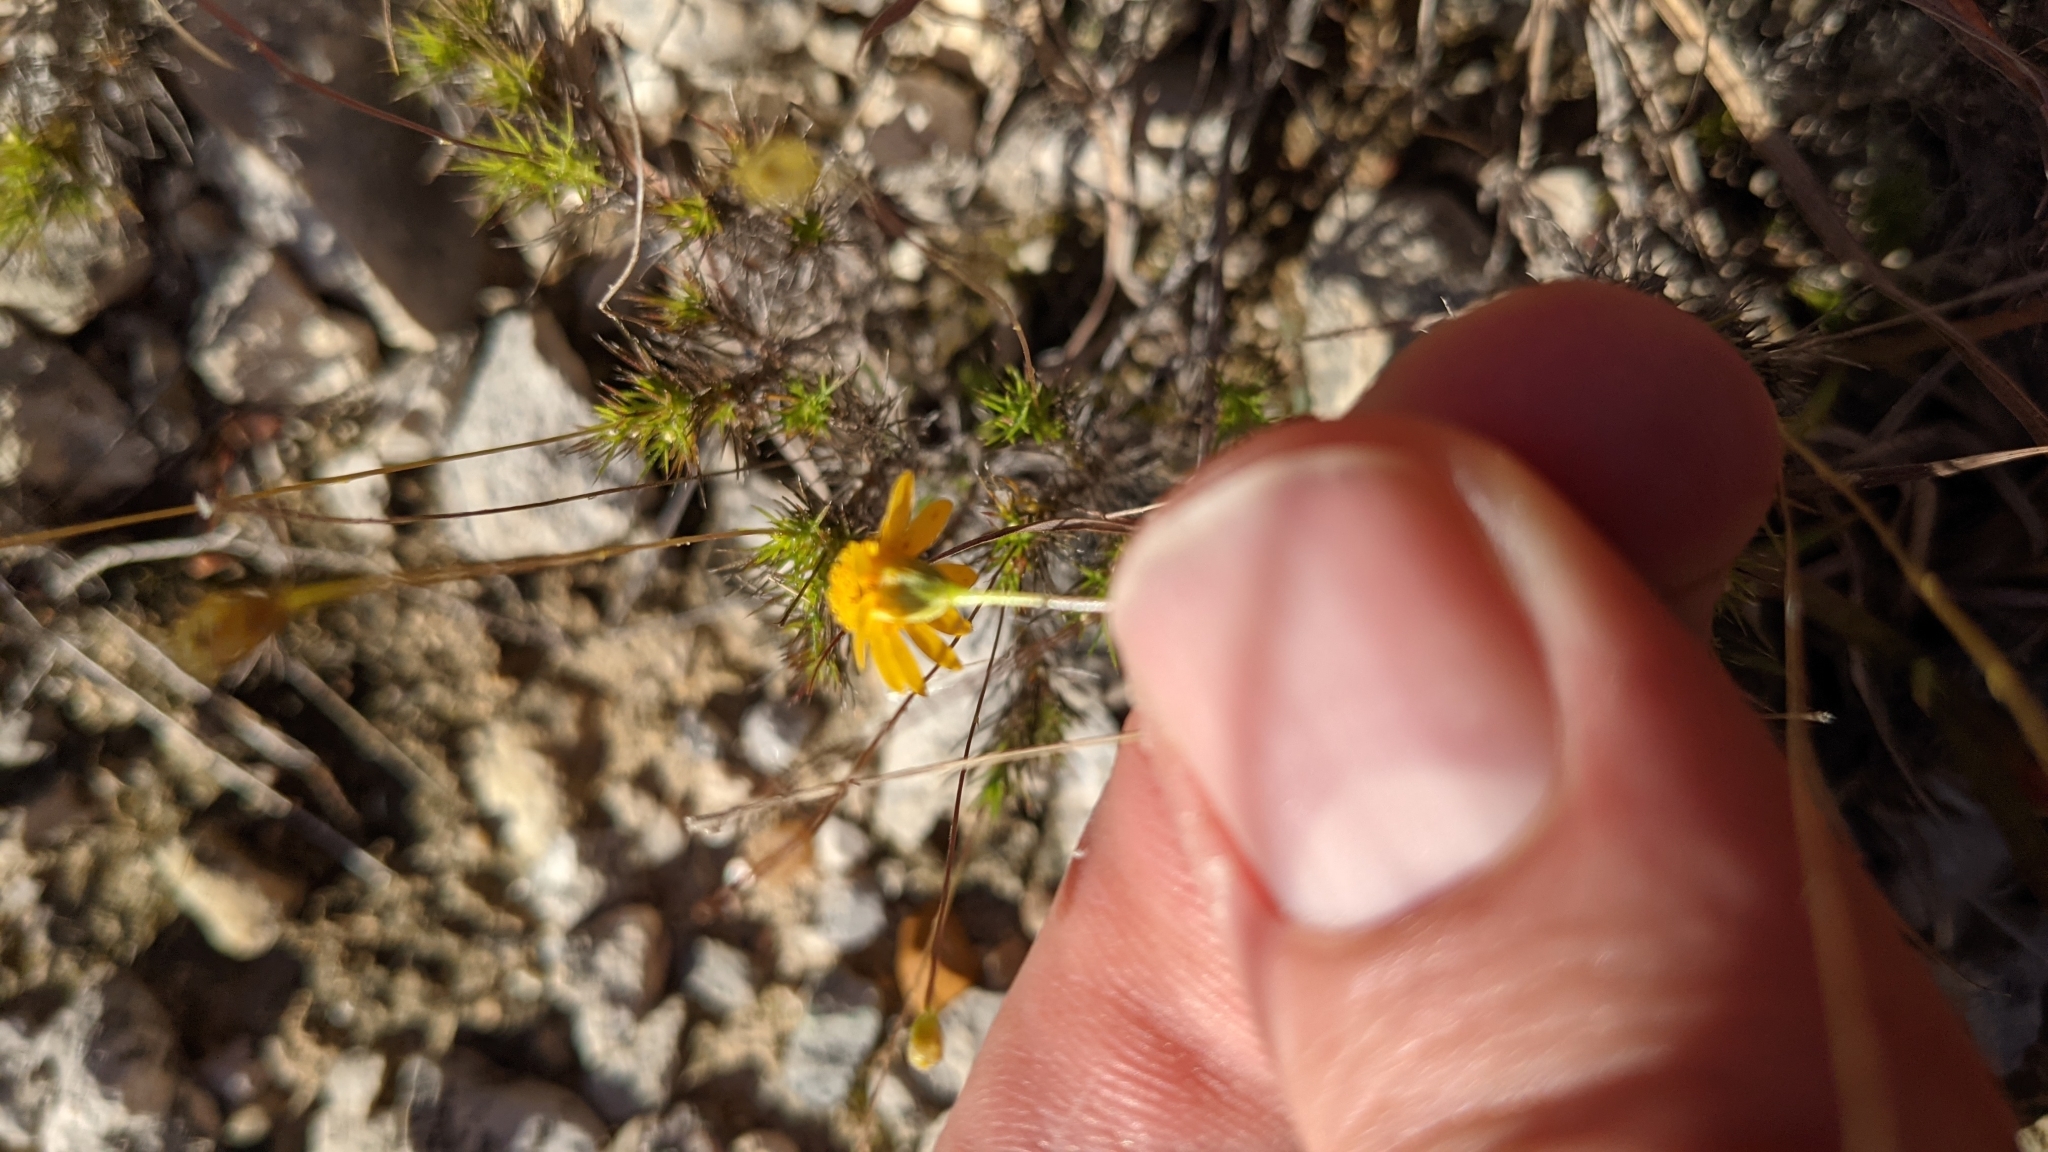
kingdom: Plantae
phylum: Tracheophyta
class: Magnoliopsida
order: Asterales
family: Asteraceae
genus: Thymophylla
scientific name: Thymophylla tenuiloba
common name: Dahlberg's daisy
